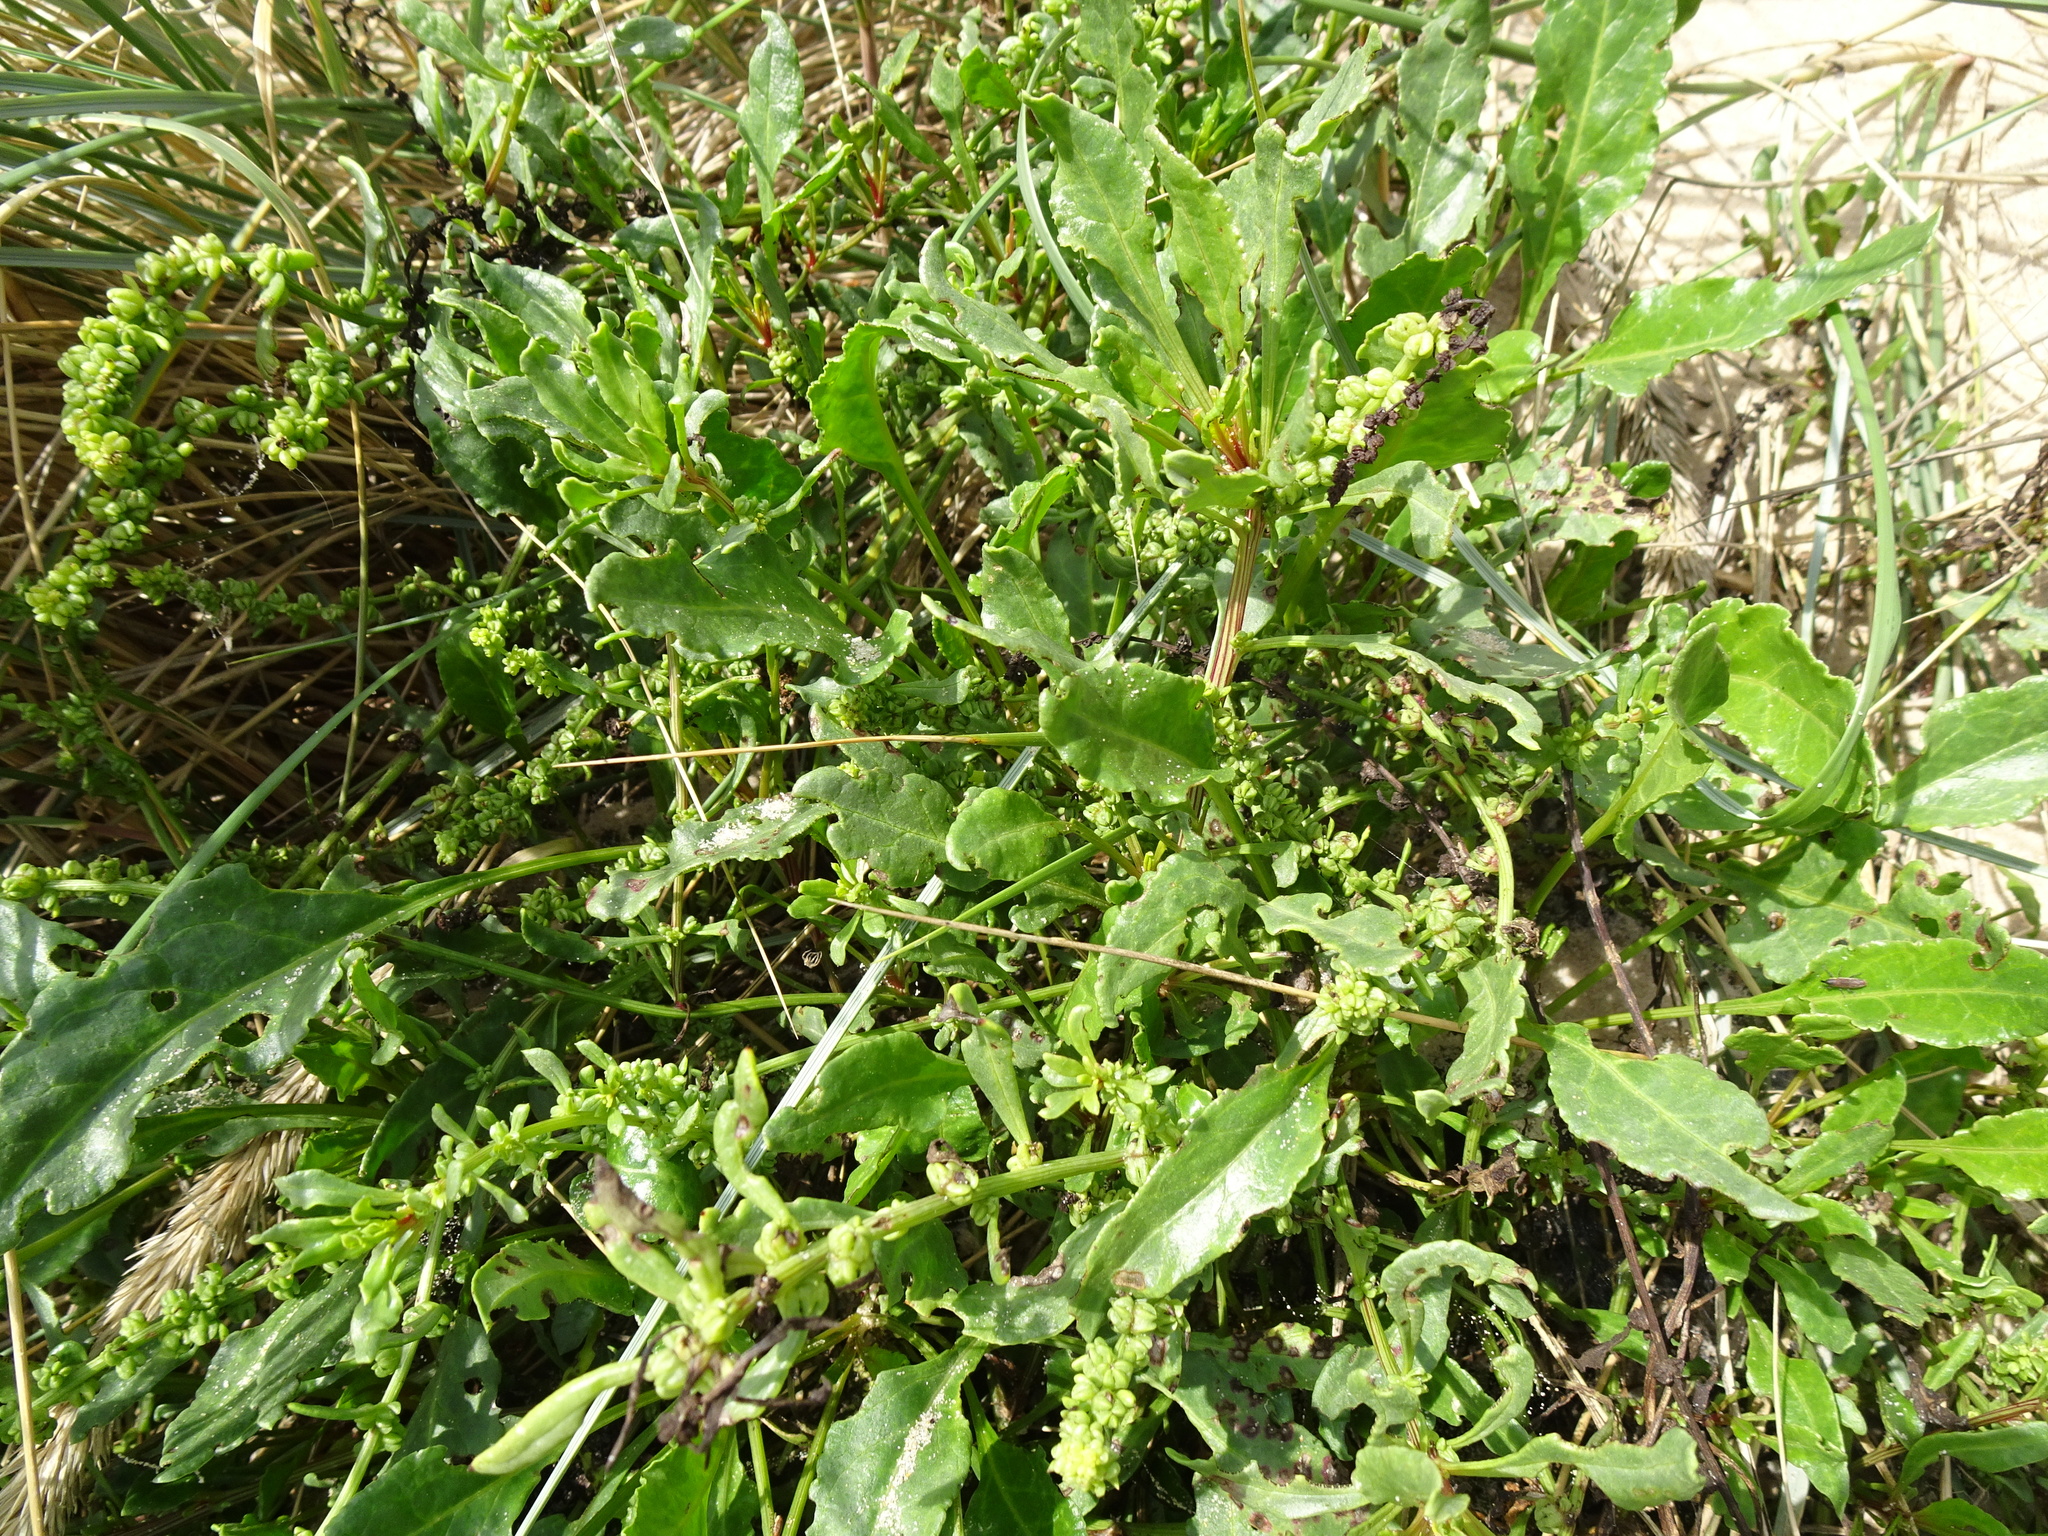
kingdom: Plantae
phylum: Tracheophyta
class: Magnoliopsida
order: Caryophyllales
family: Amaranthaceae
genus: Beta
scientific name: Beta vulgaris
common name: Beet
